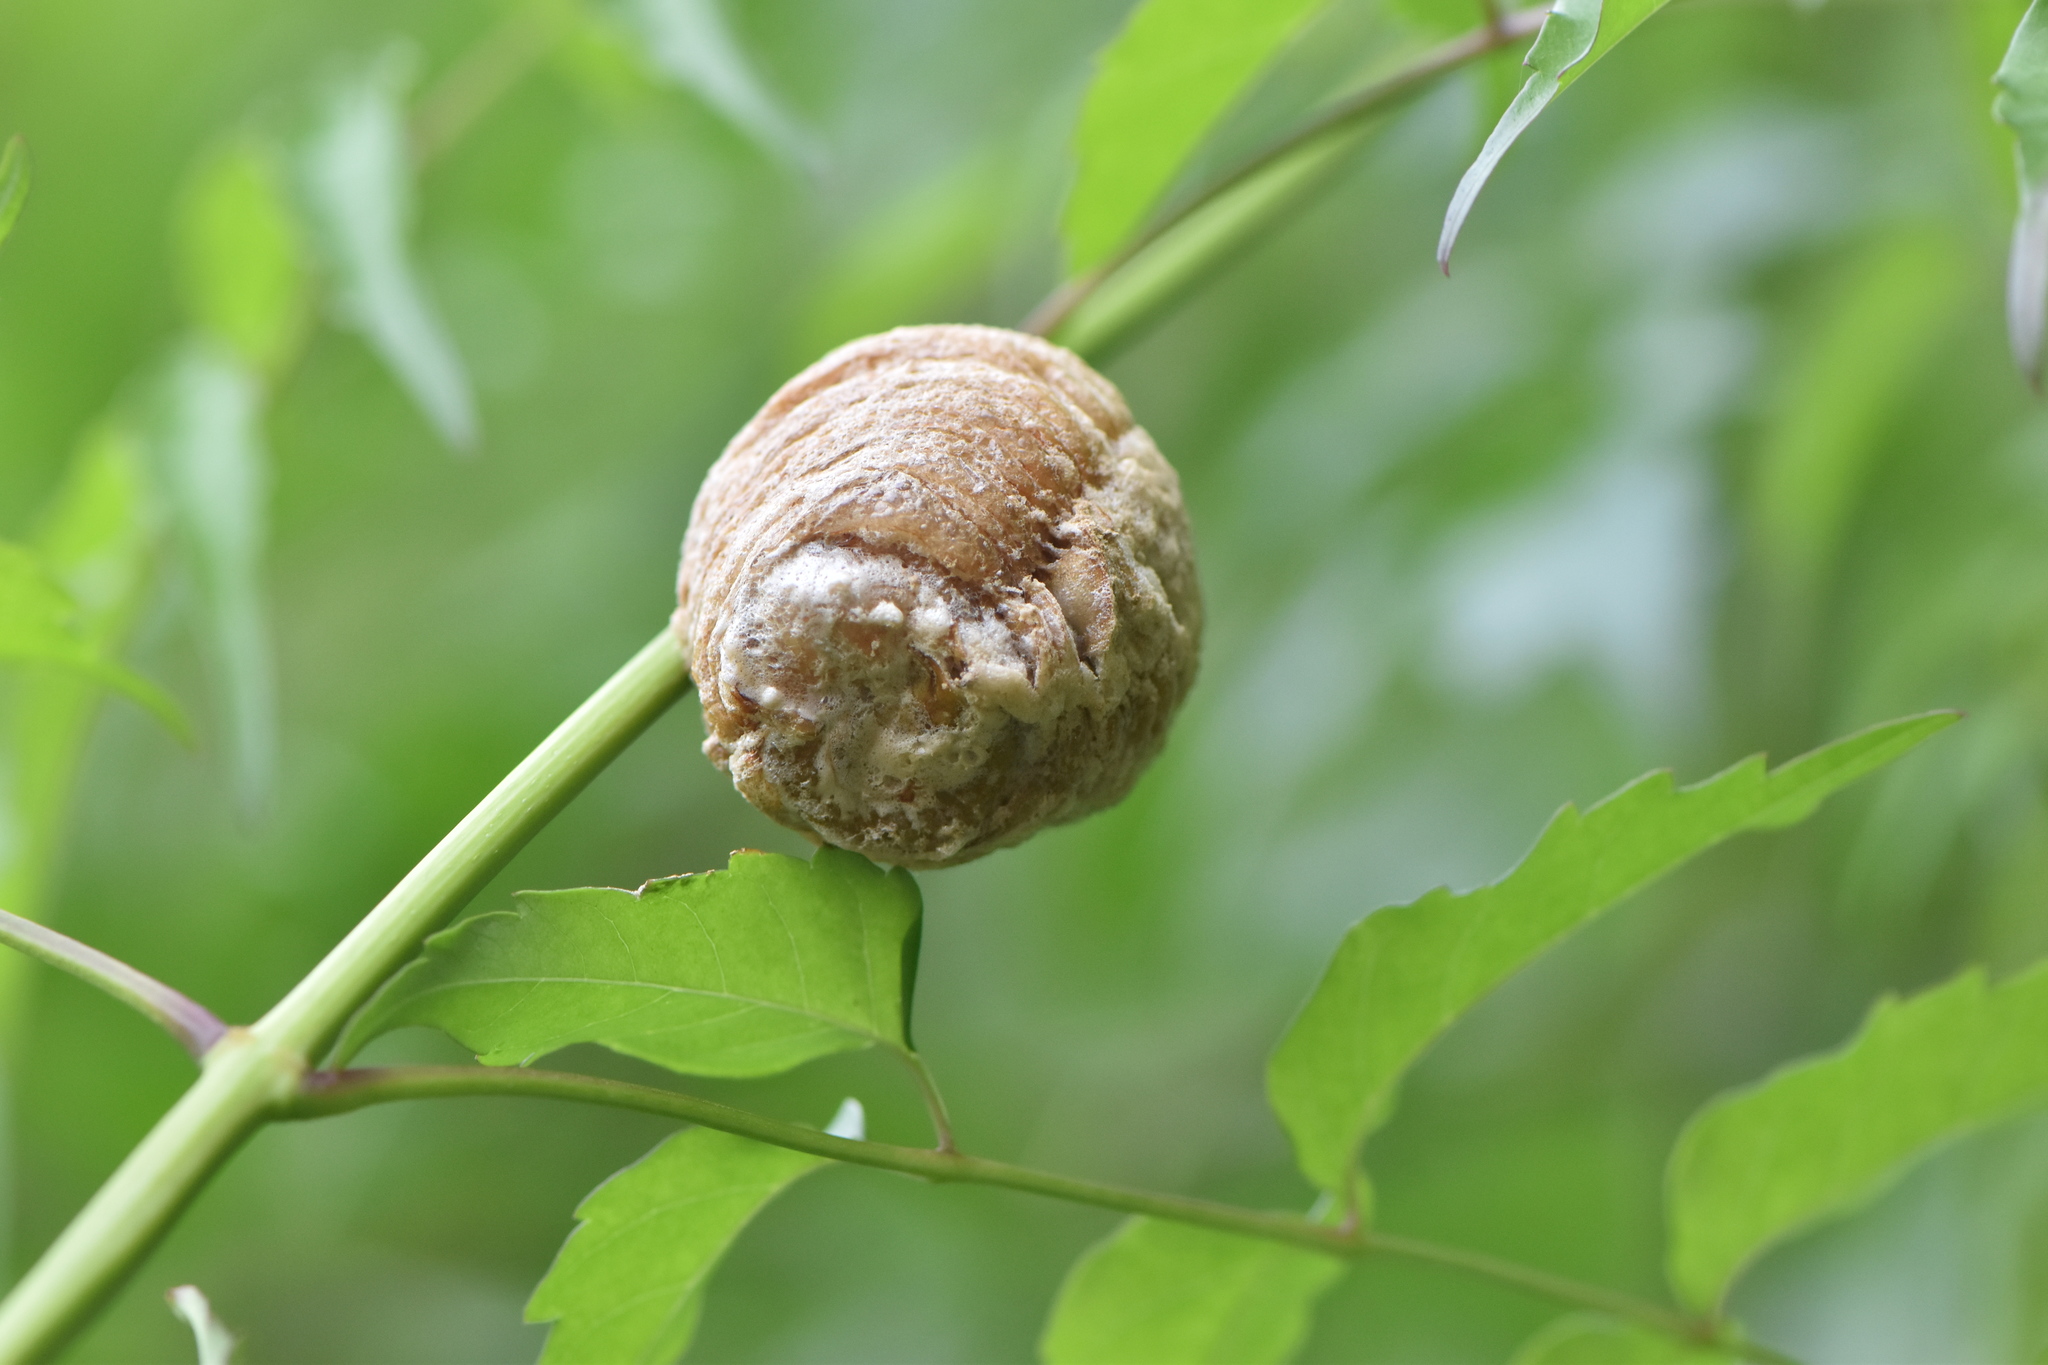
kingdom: Animalia
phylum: Arthropoda
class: Insecta
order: Mantodea
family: Mantidae
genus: Sphodromantis
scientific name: Sphodromantis viridis
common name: Giant african mantis
